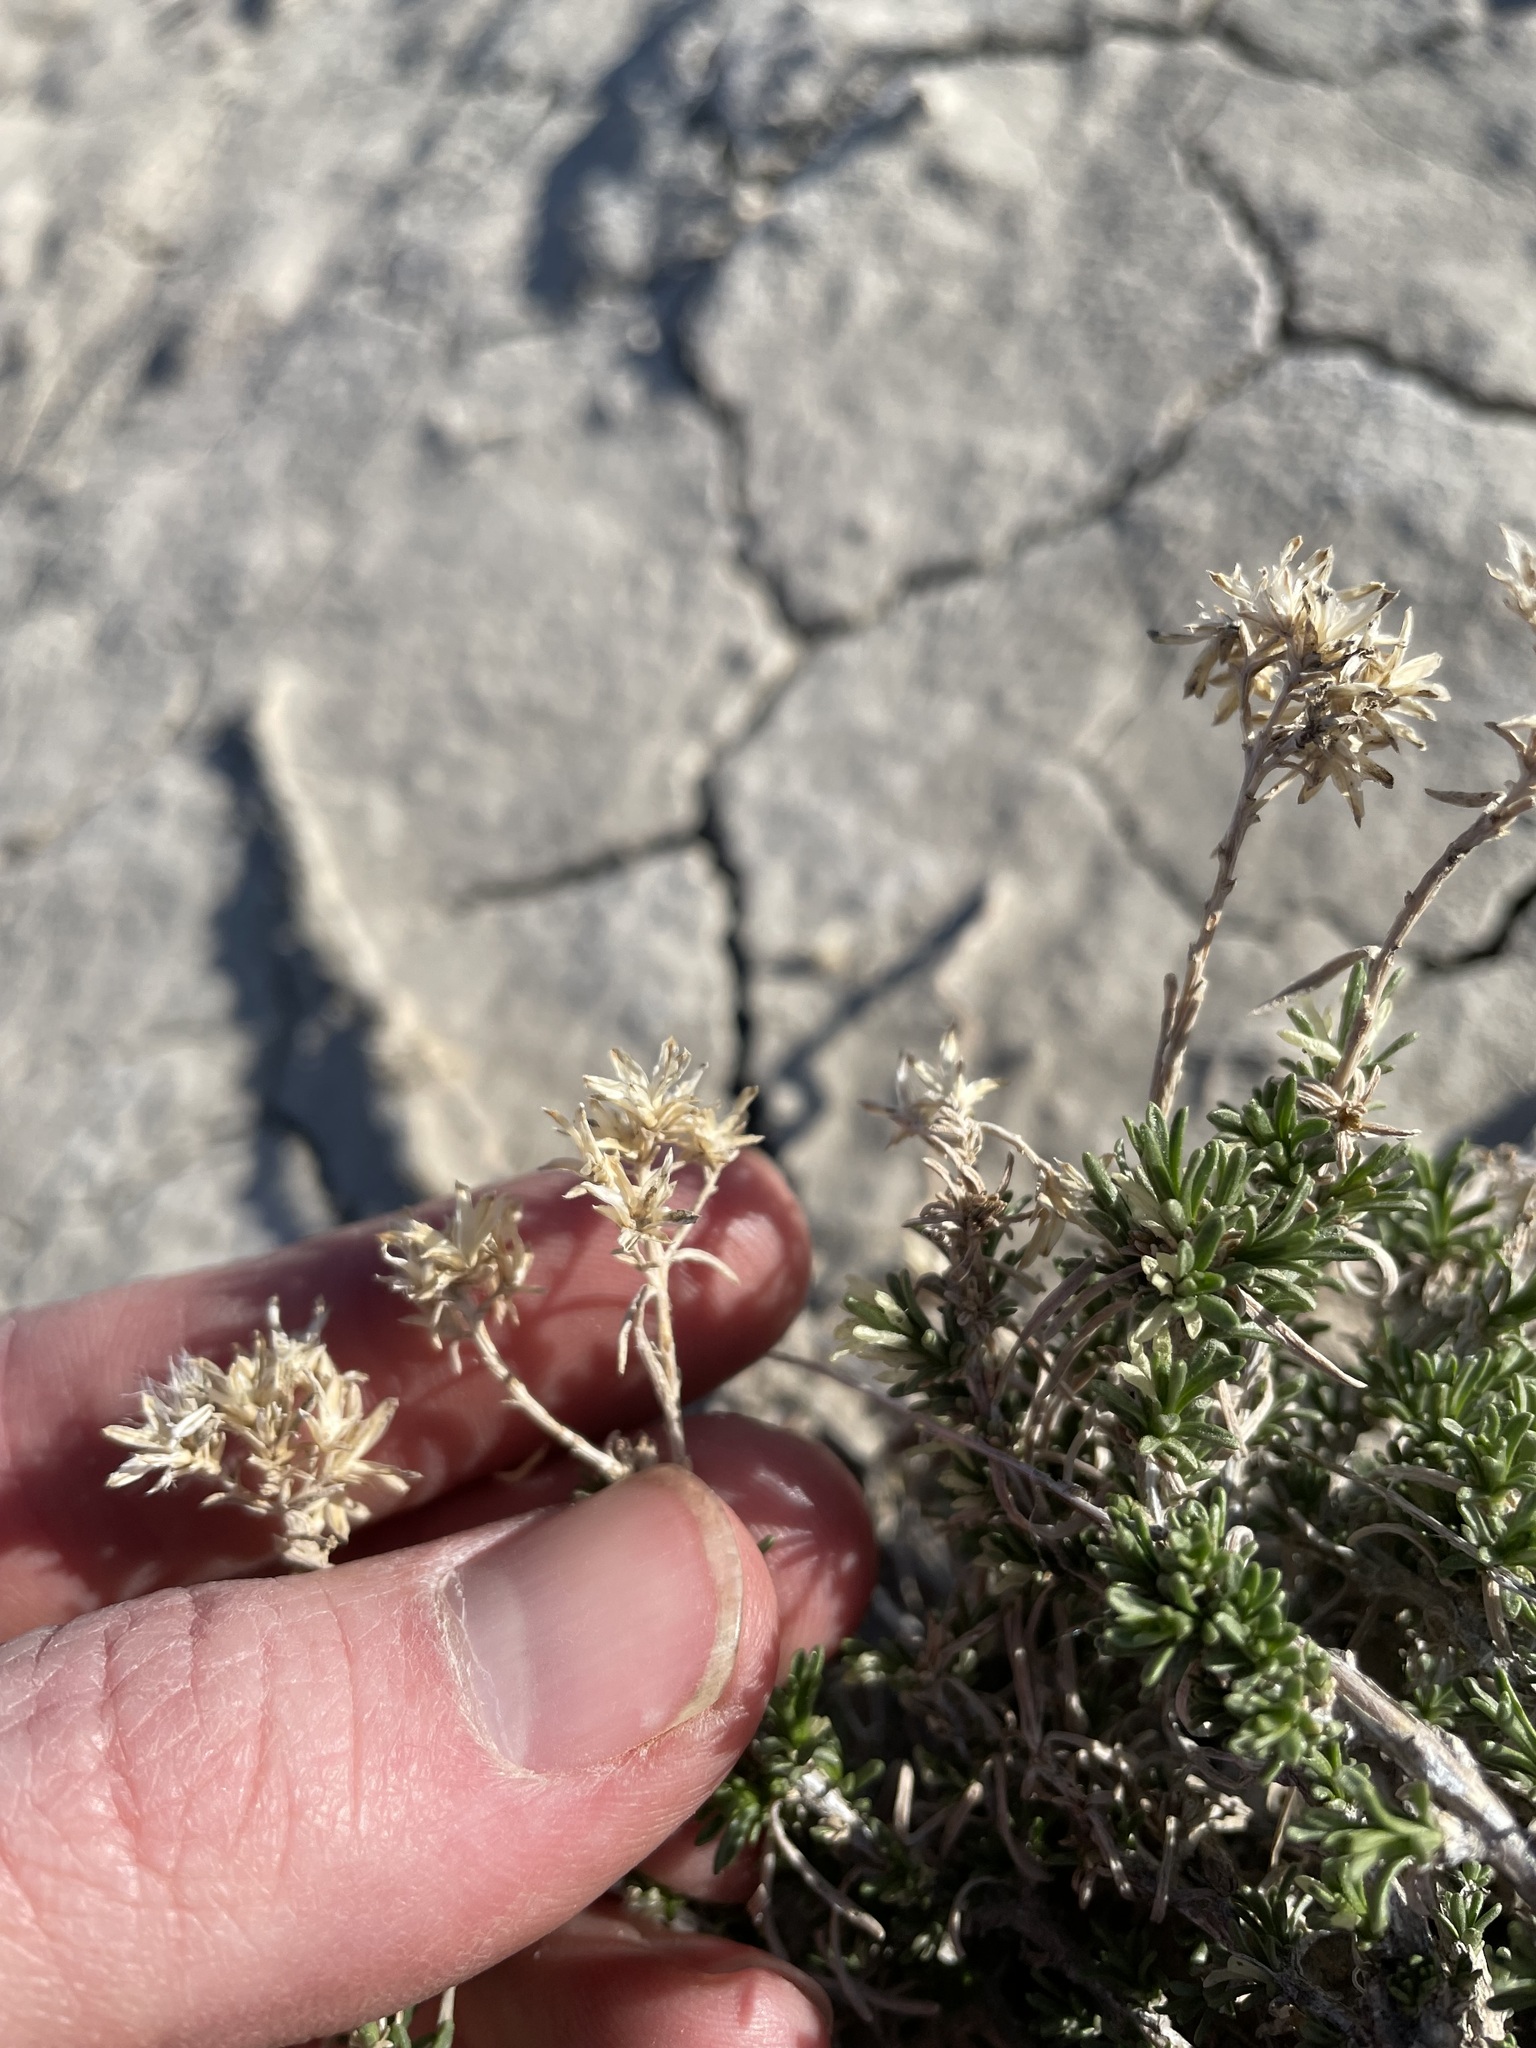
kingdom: Plantae
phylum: Tracheophyta
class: Magnoliopsida
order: Asterales
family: Asteraceae
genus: Gutierrezia
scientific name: Gutierrezia sarothrae
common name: Broom snakeweed
